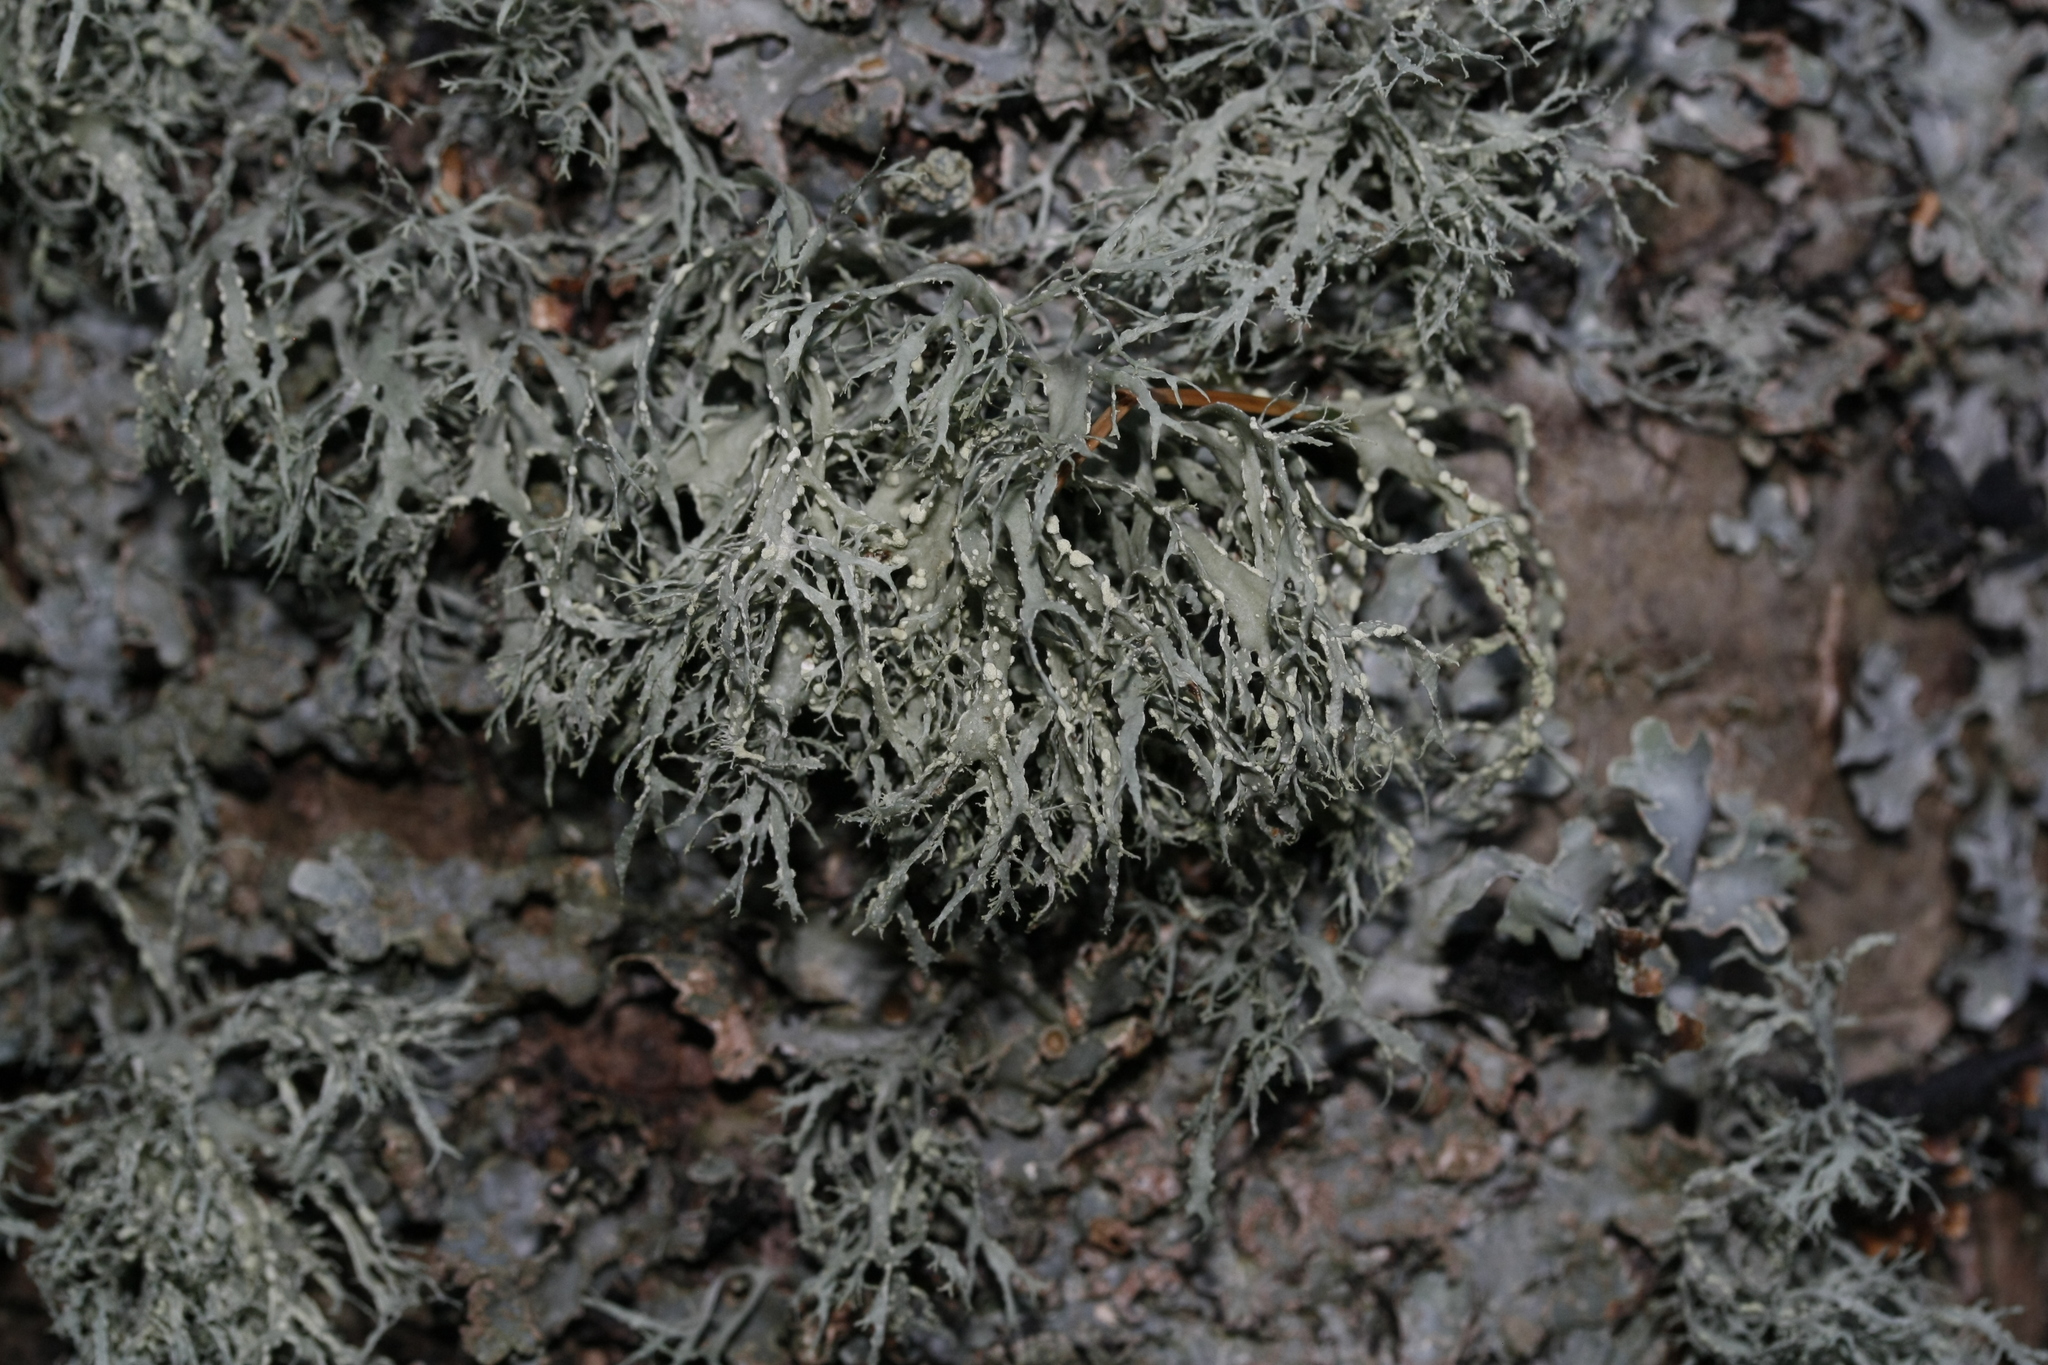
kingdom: Fungi
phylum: Ascomycota
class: Lecanoromycetes
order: Lecanorales
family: Ramalinaceae
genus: Ramalina
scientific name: Ramalina farinacea
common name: Farinose cartilage lichen
